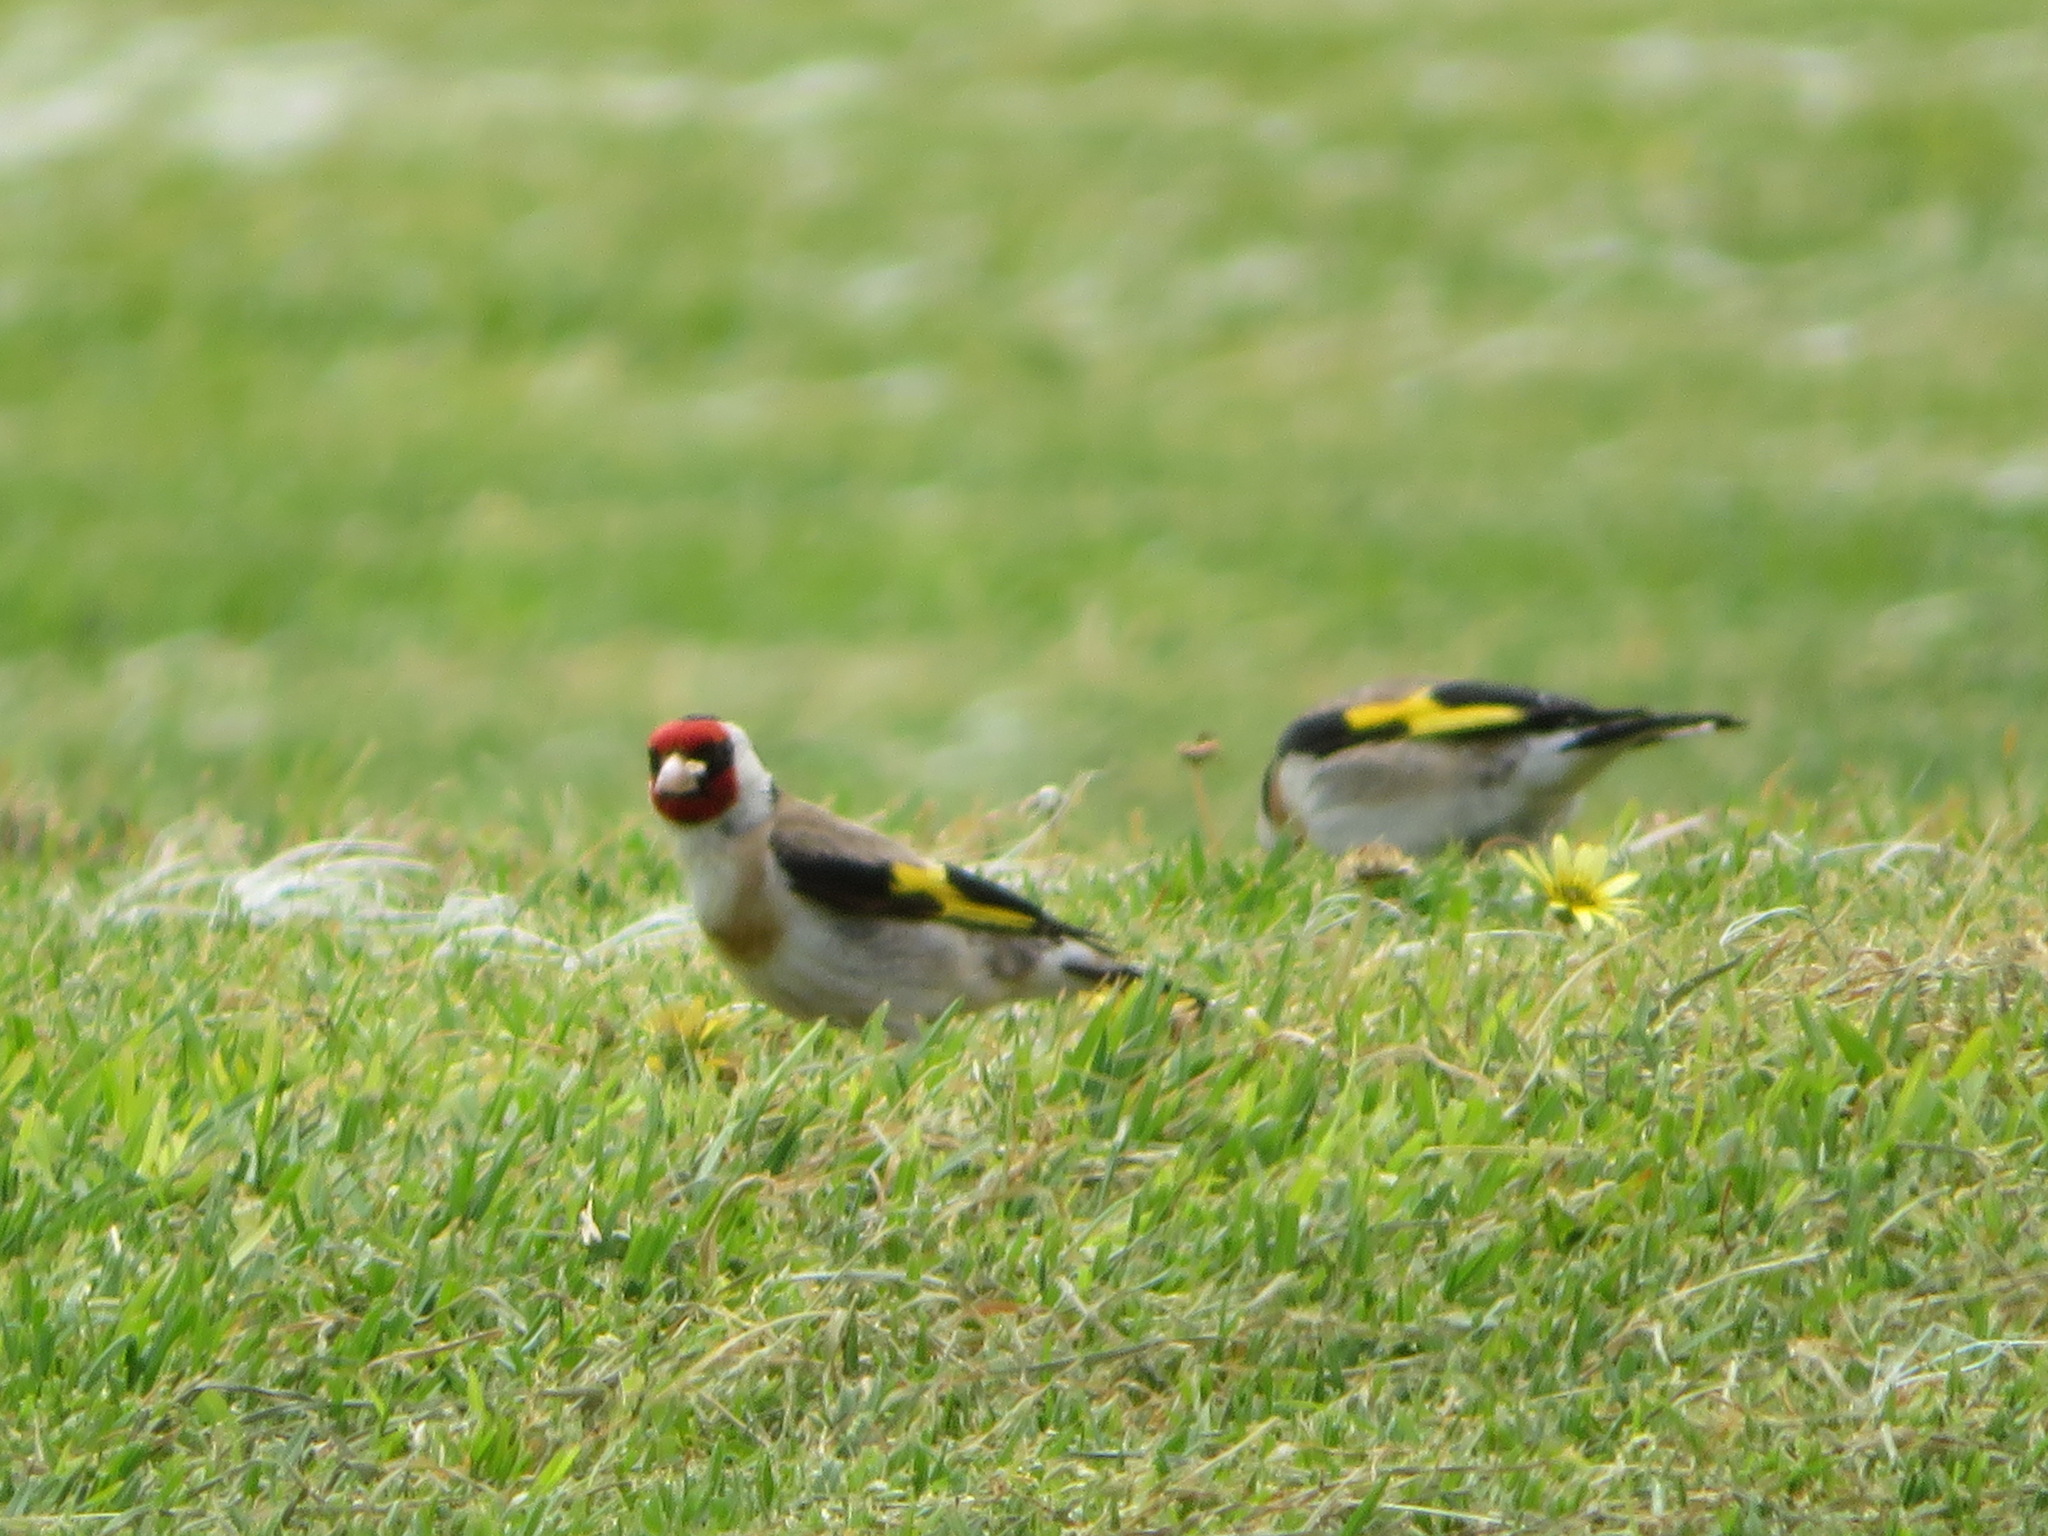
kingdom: Animalia
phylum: Chordata
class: Aves
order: Passeriformes
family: Fringillidae
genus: Carduelis
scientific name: Carduelis carduelis
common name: European goldfinch
